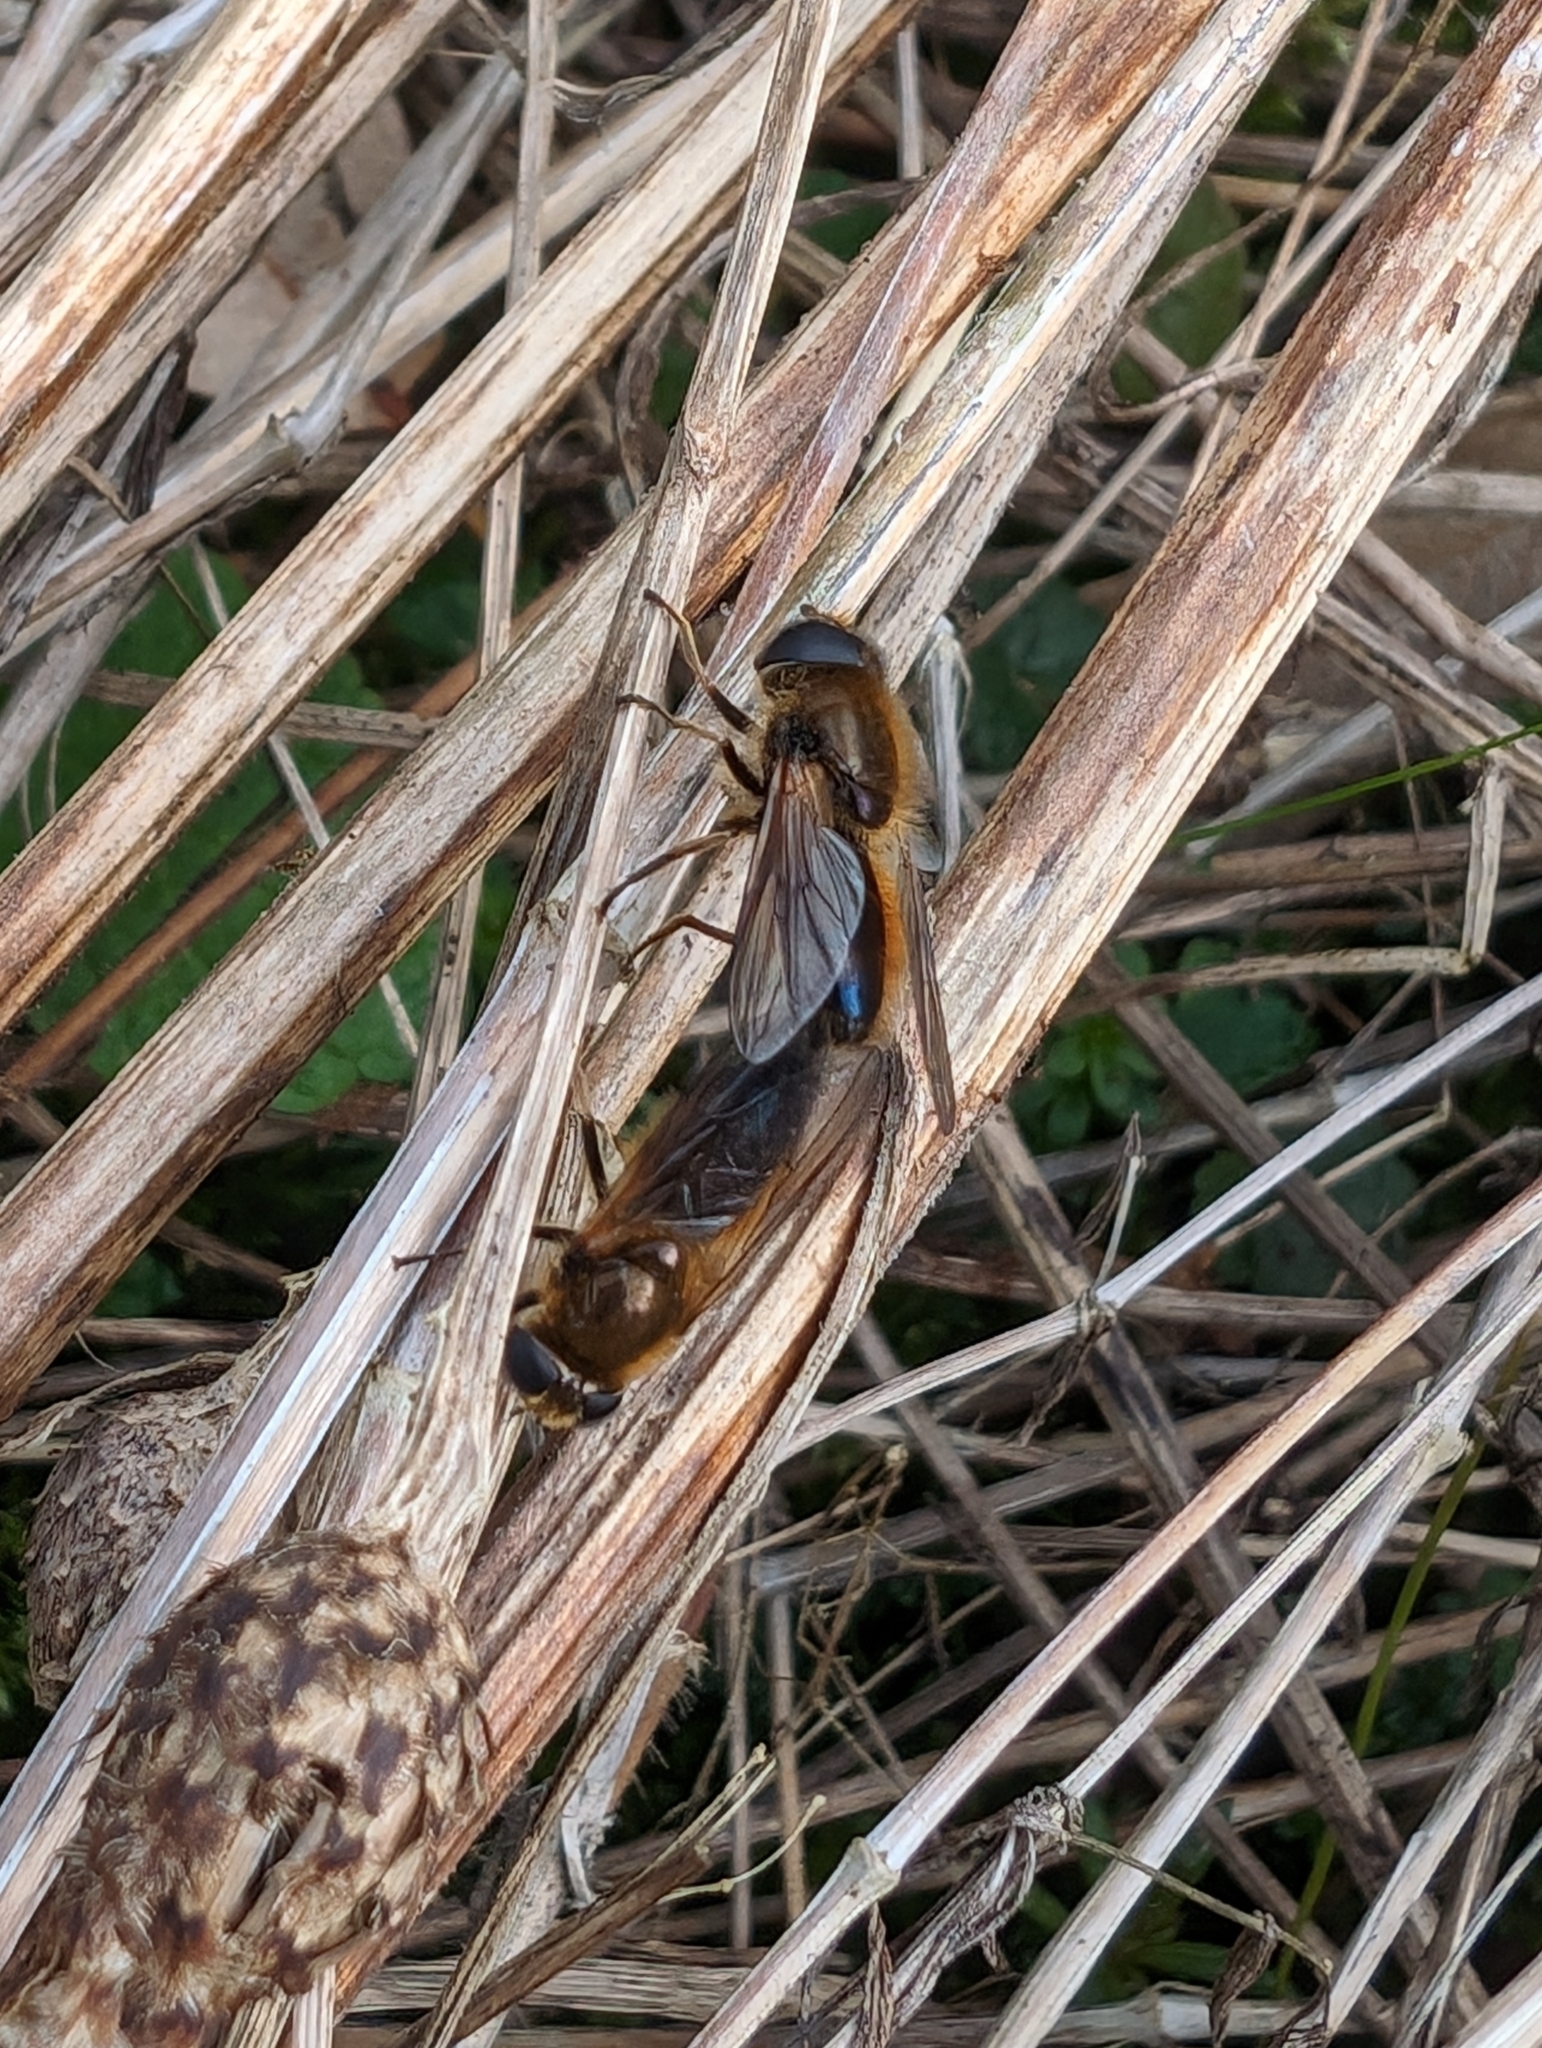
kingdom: Animalia
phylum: Arthropoda
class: Insecta
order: Diptera
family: Syrphidae
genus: Cheilosia
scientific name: Cheilosia corydon
